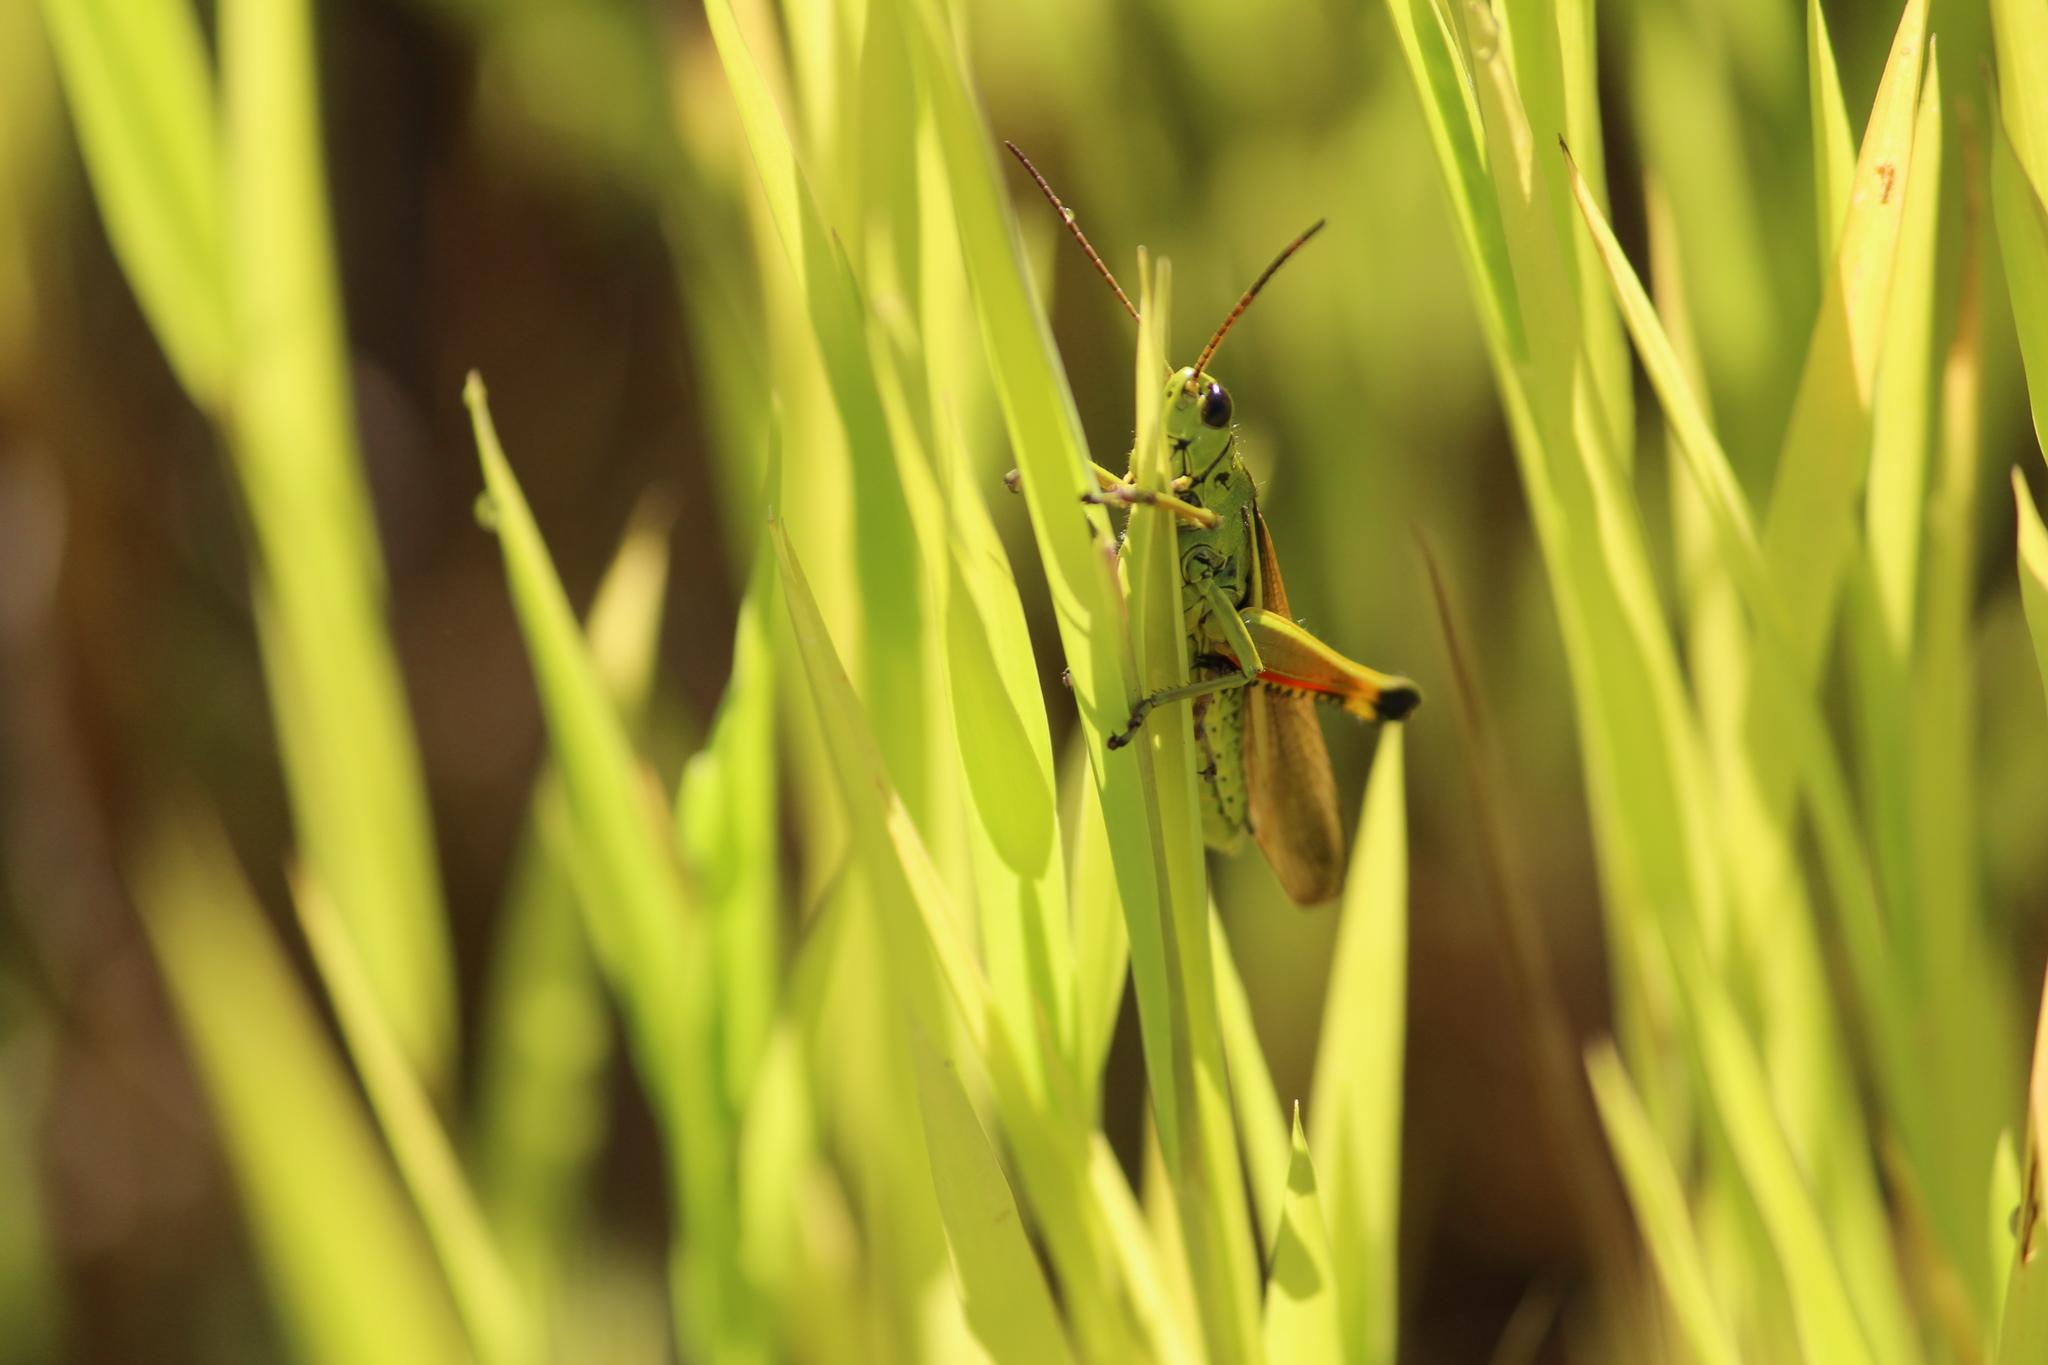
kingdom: Animalia
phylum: Arthropoda
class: Insecta
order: Orthoptera
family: Acrididae
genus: Stethophyma
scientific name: Stethophyma grossum
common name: Large marsh grasshopper
